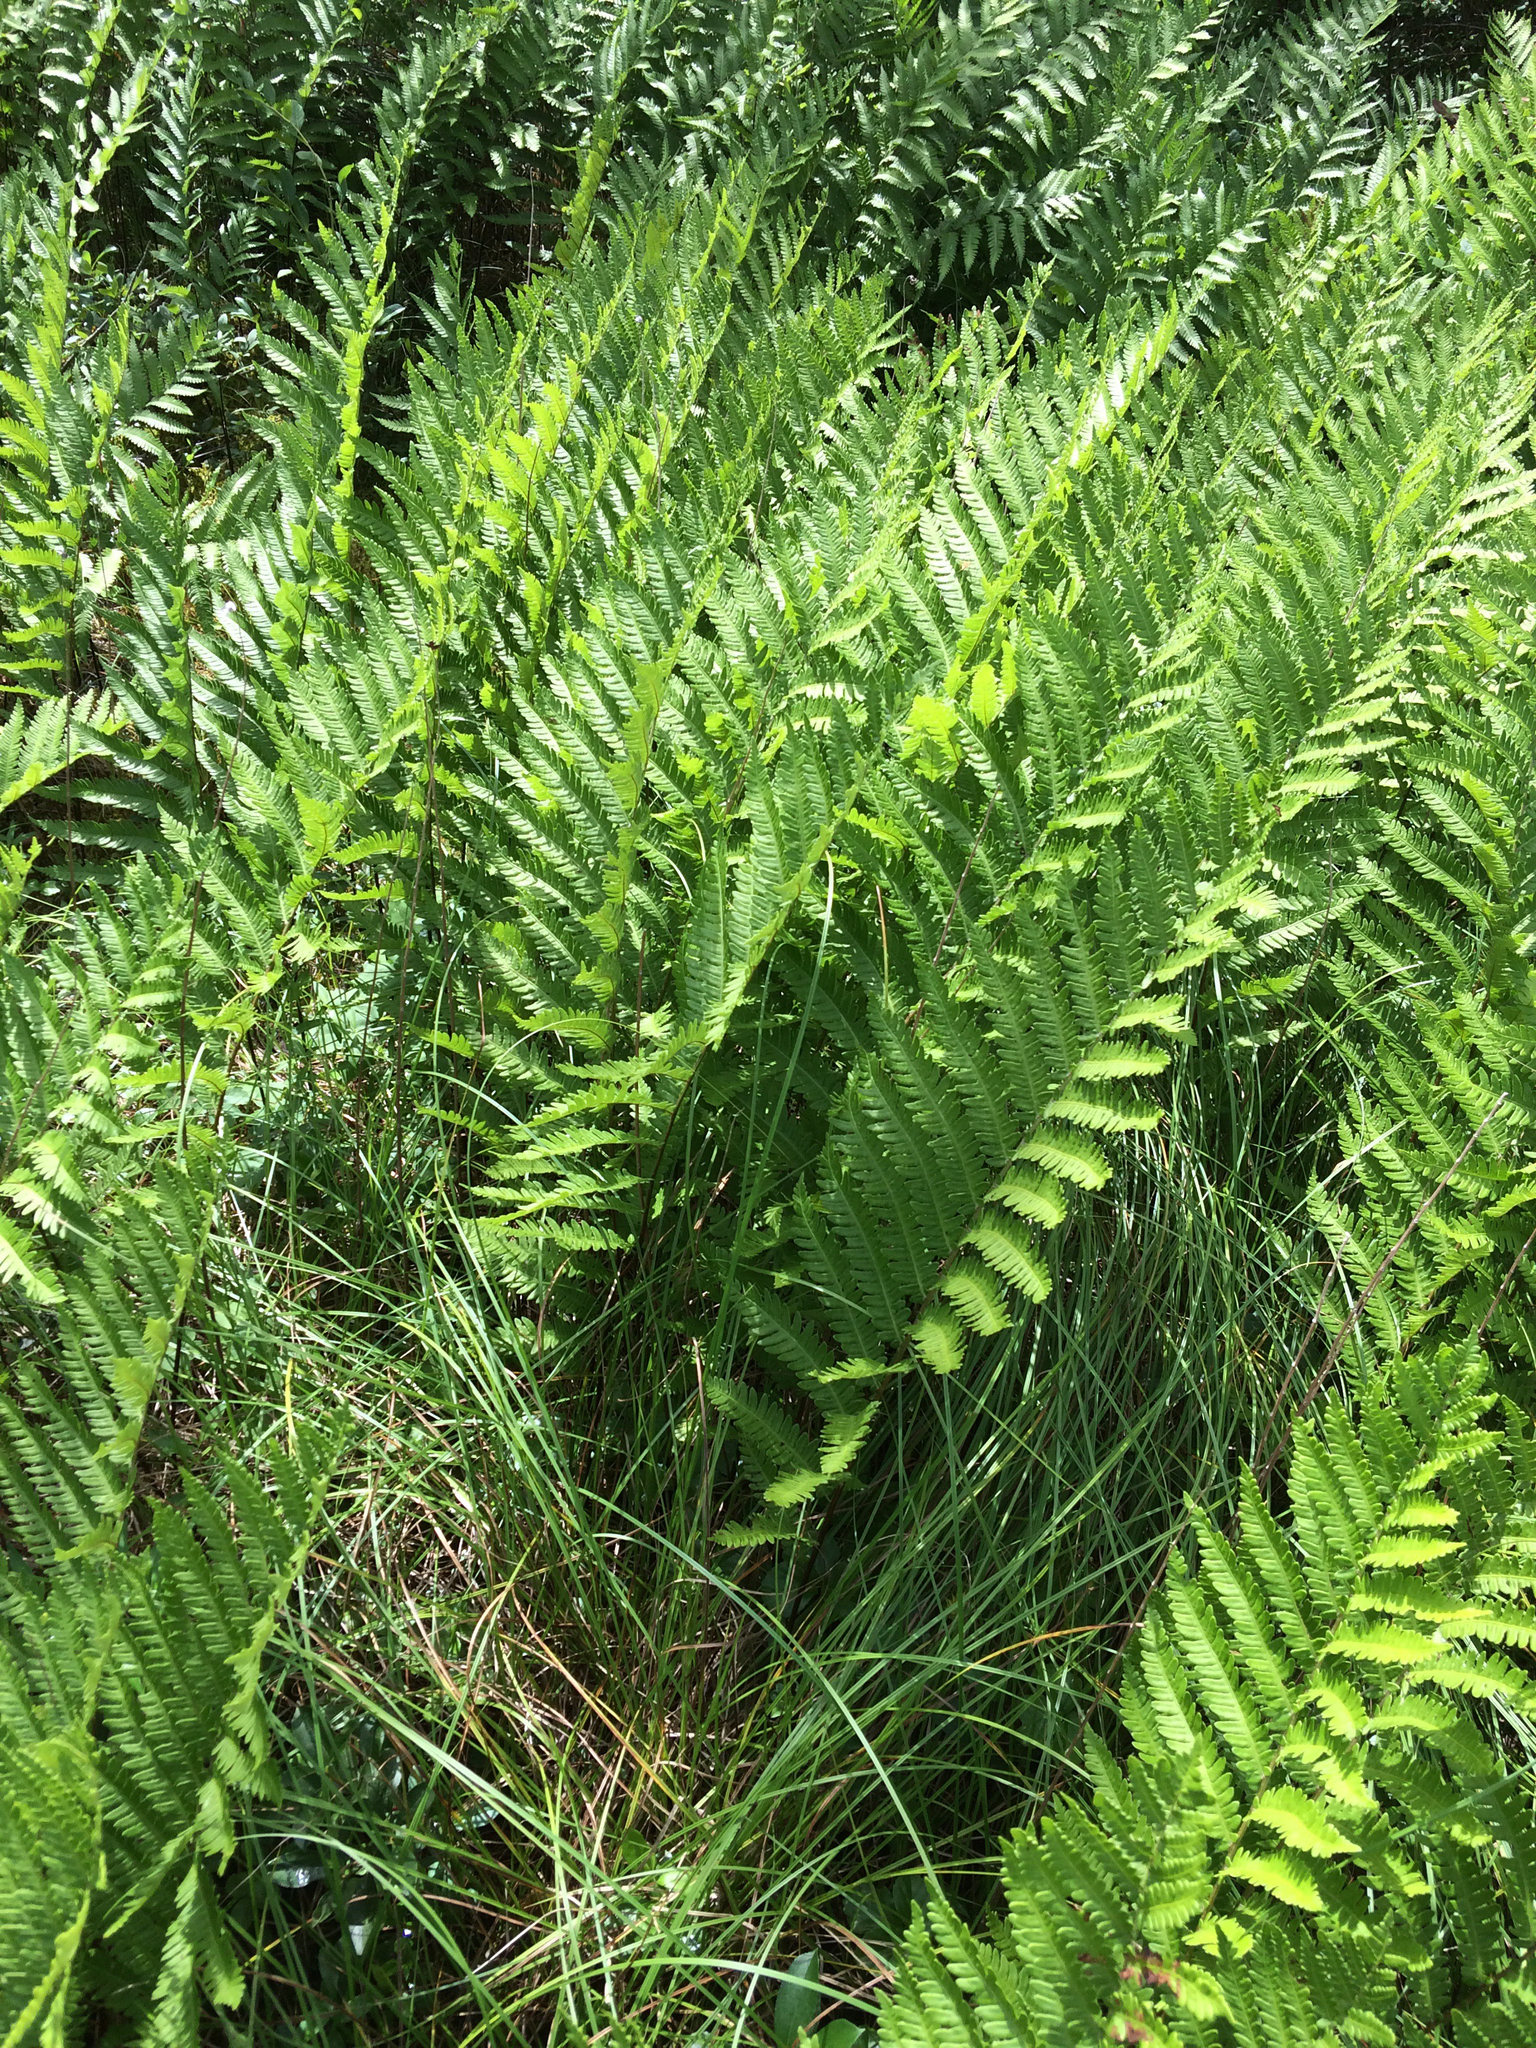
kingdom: Plantae
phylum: Tracheophyta
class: Polypodiopsida
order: Polypodiales
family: Dryopteridaceae
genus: Dryopteris
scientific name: Dryopteris cristata
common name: Crested wood fern
